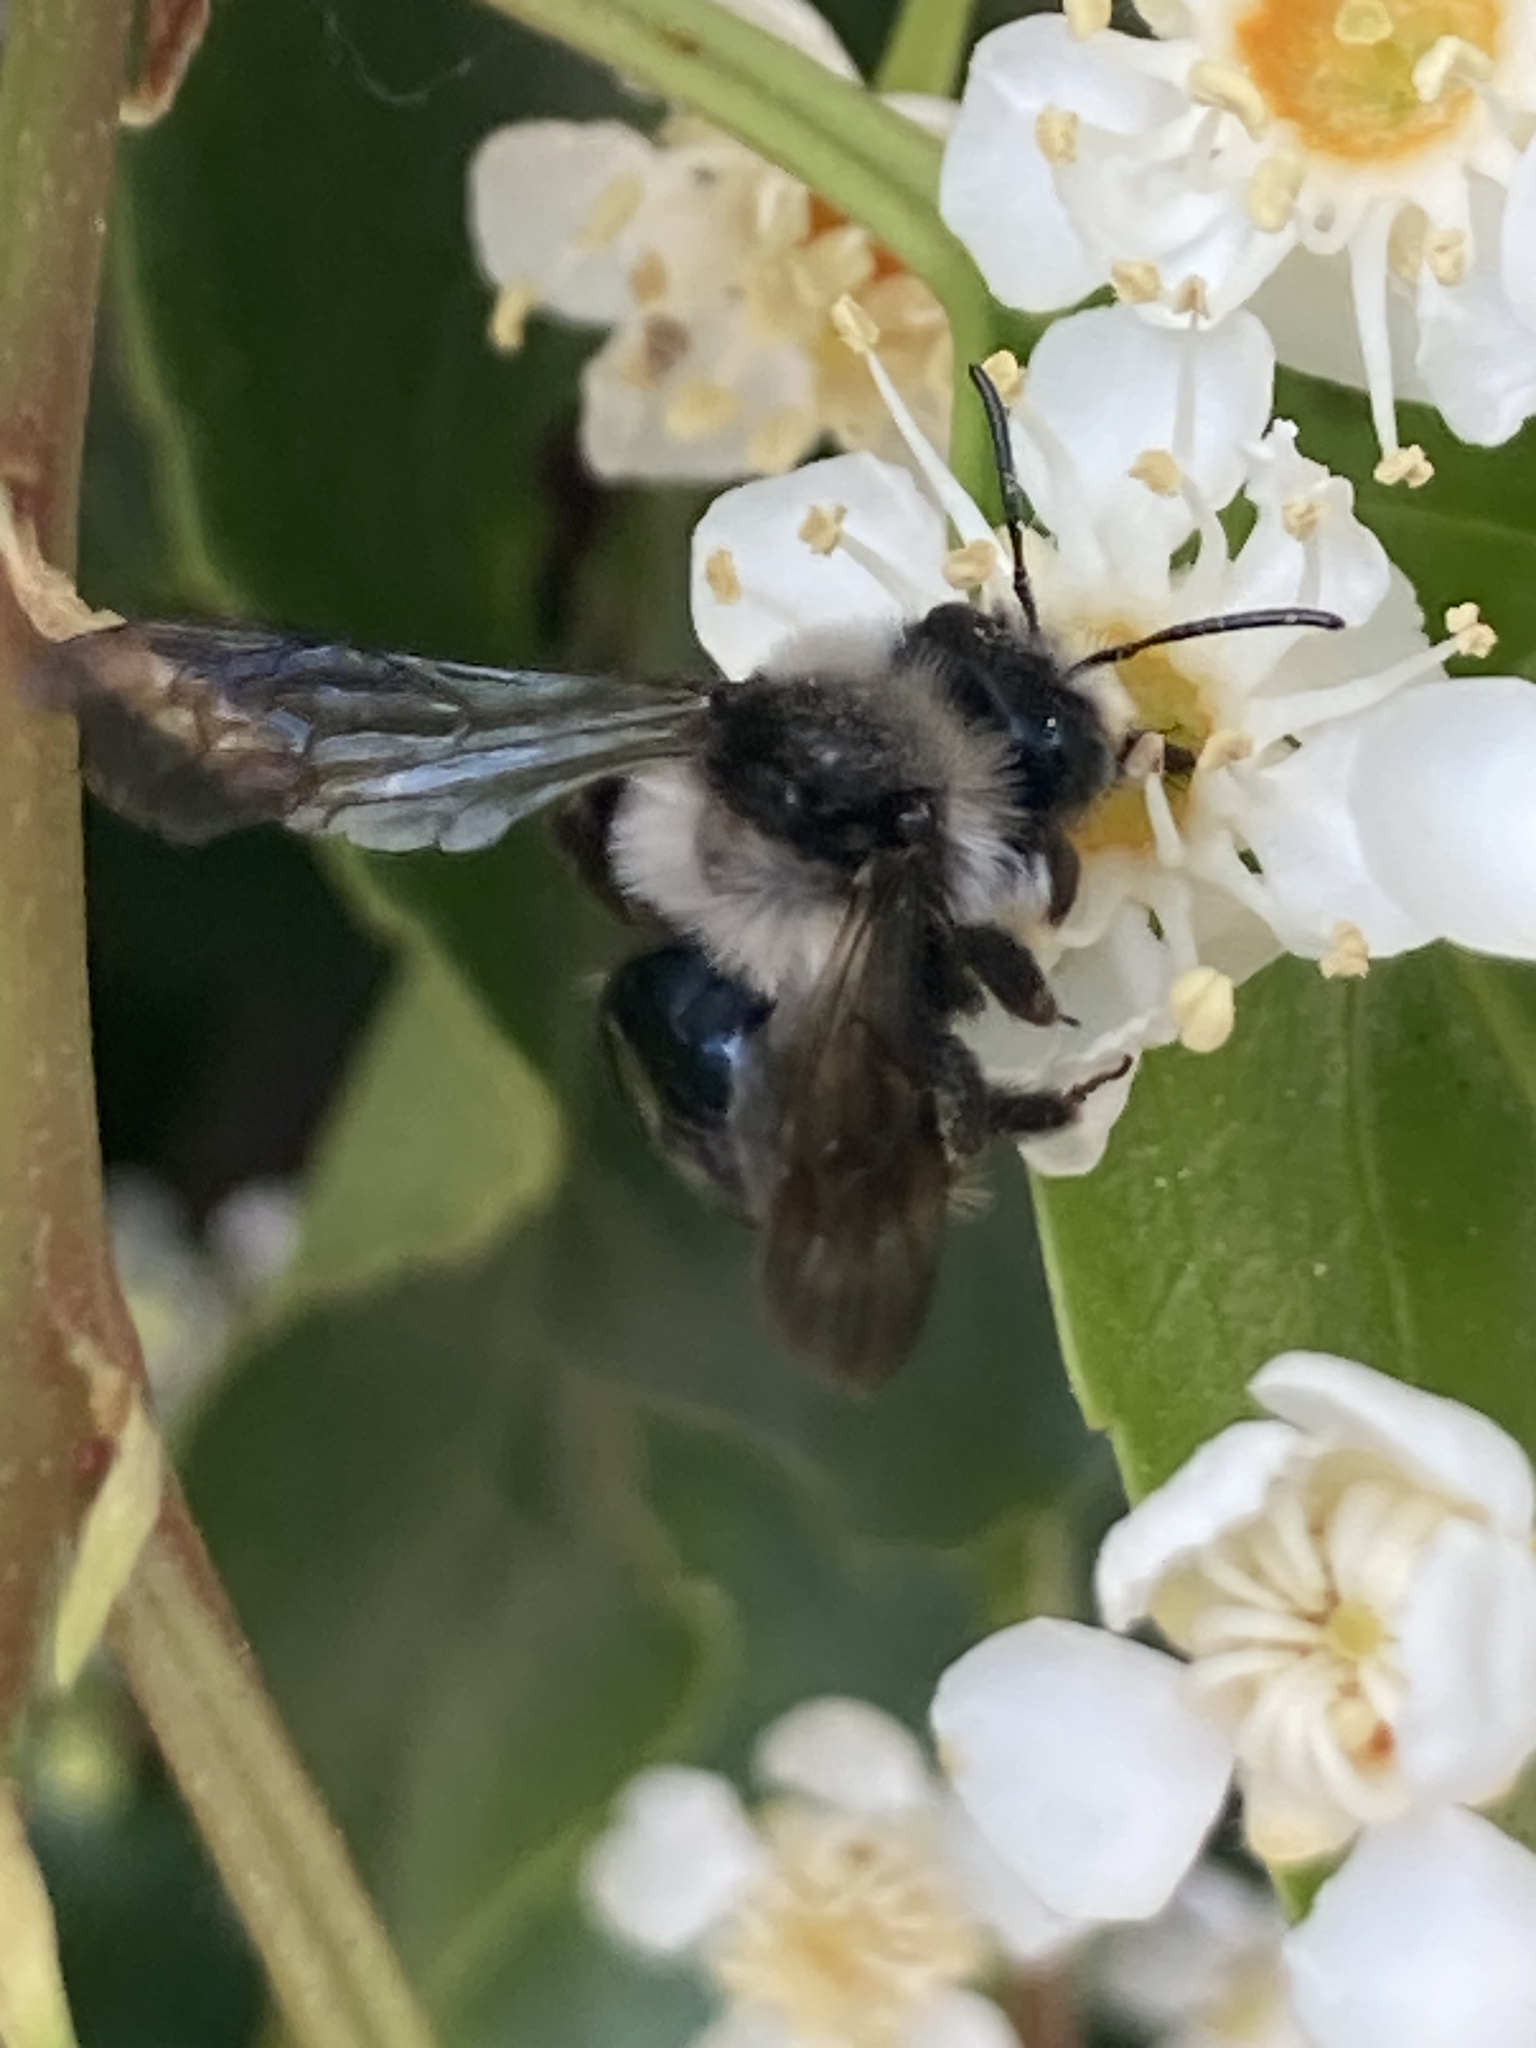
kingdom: Animalia
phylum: Arthropoda
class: Insecta
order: Hymenoptera
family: Andrenidae
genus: Andrena
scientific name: Andrena cineraria
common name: Ashy mining bee
